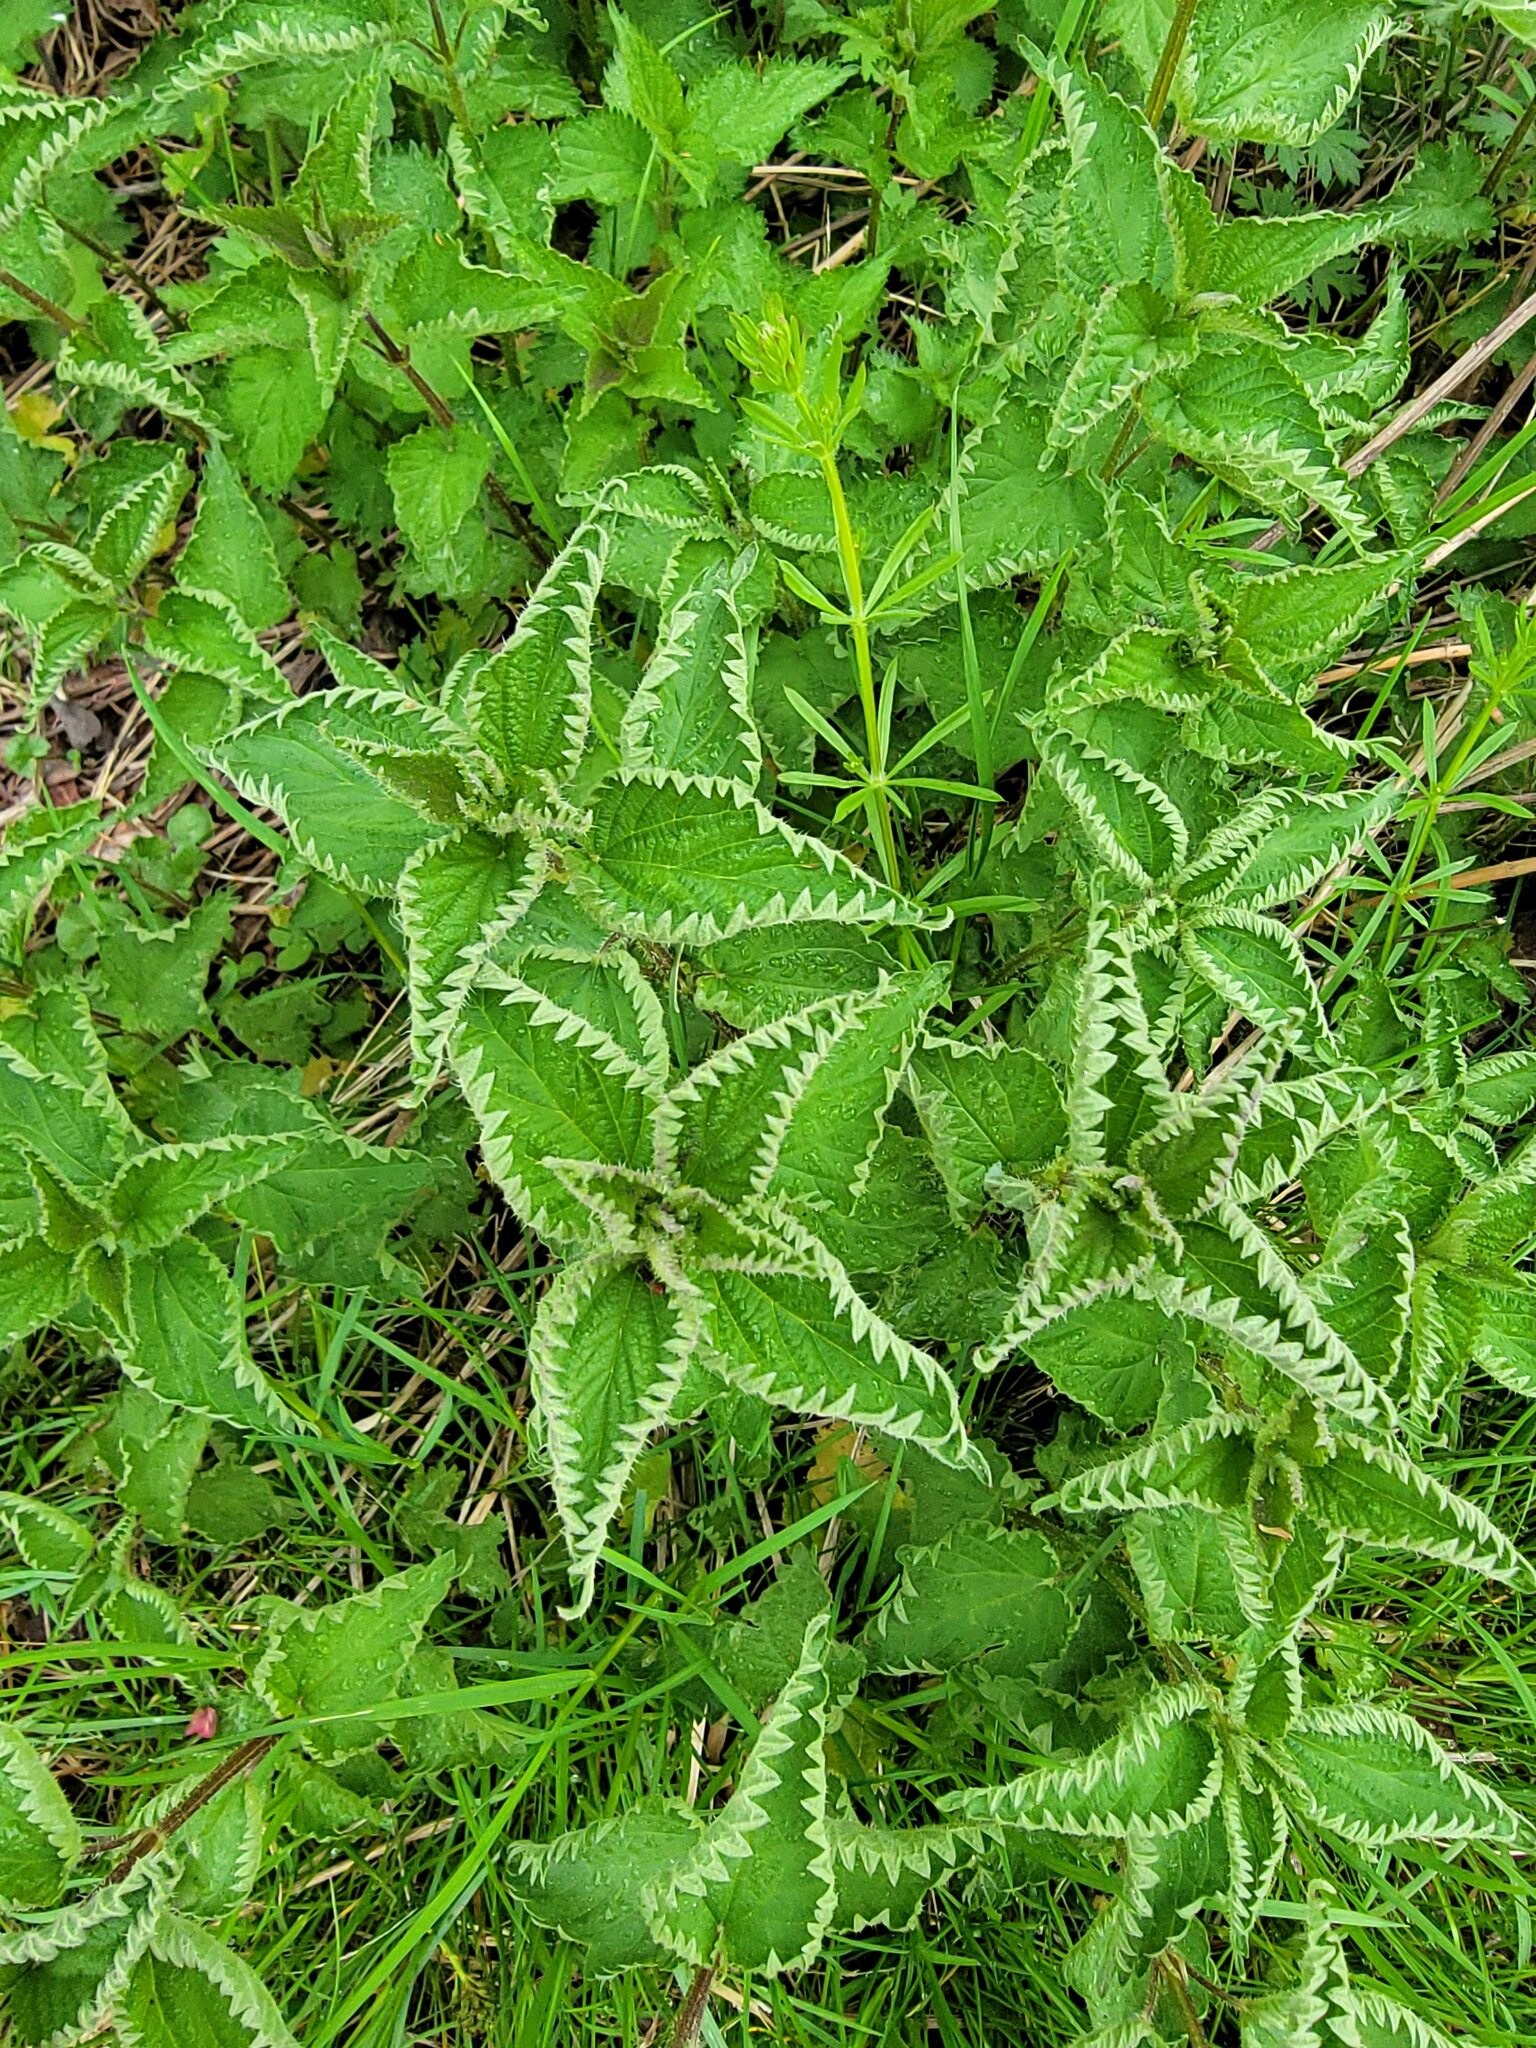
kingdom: Plantae
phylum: Tracheophyta
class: Magnoliopsida
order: Rosales
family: Urticaceae
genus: Urtica
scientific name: Urtica dioica
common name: Common nettle
